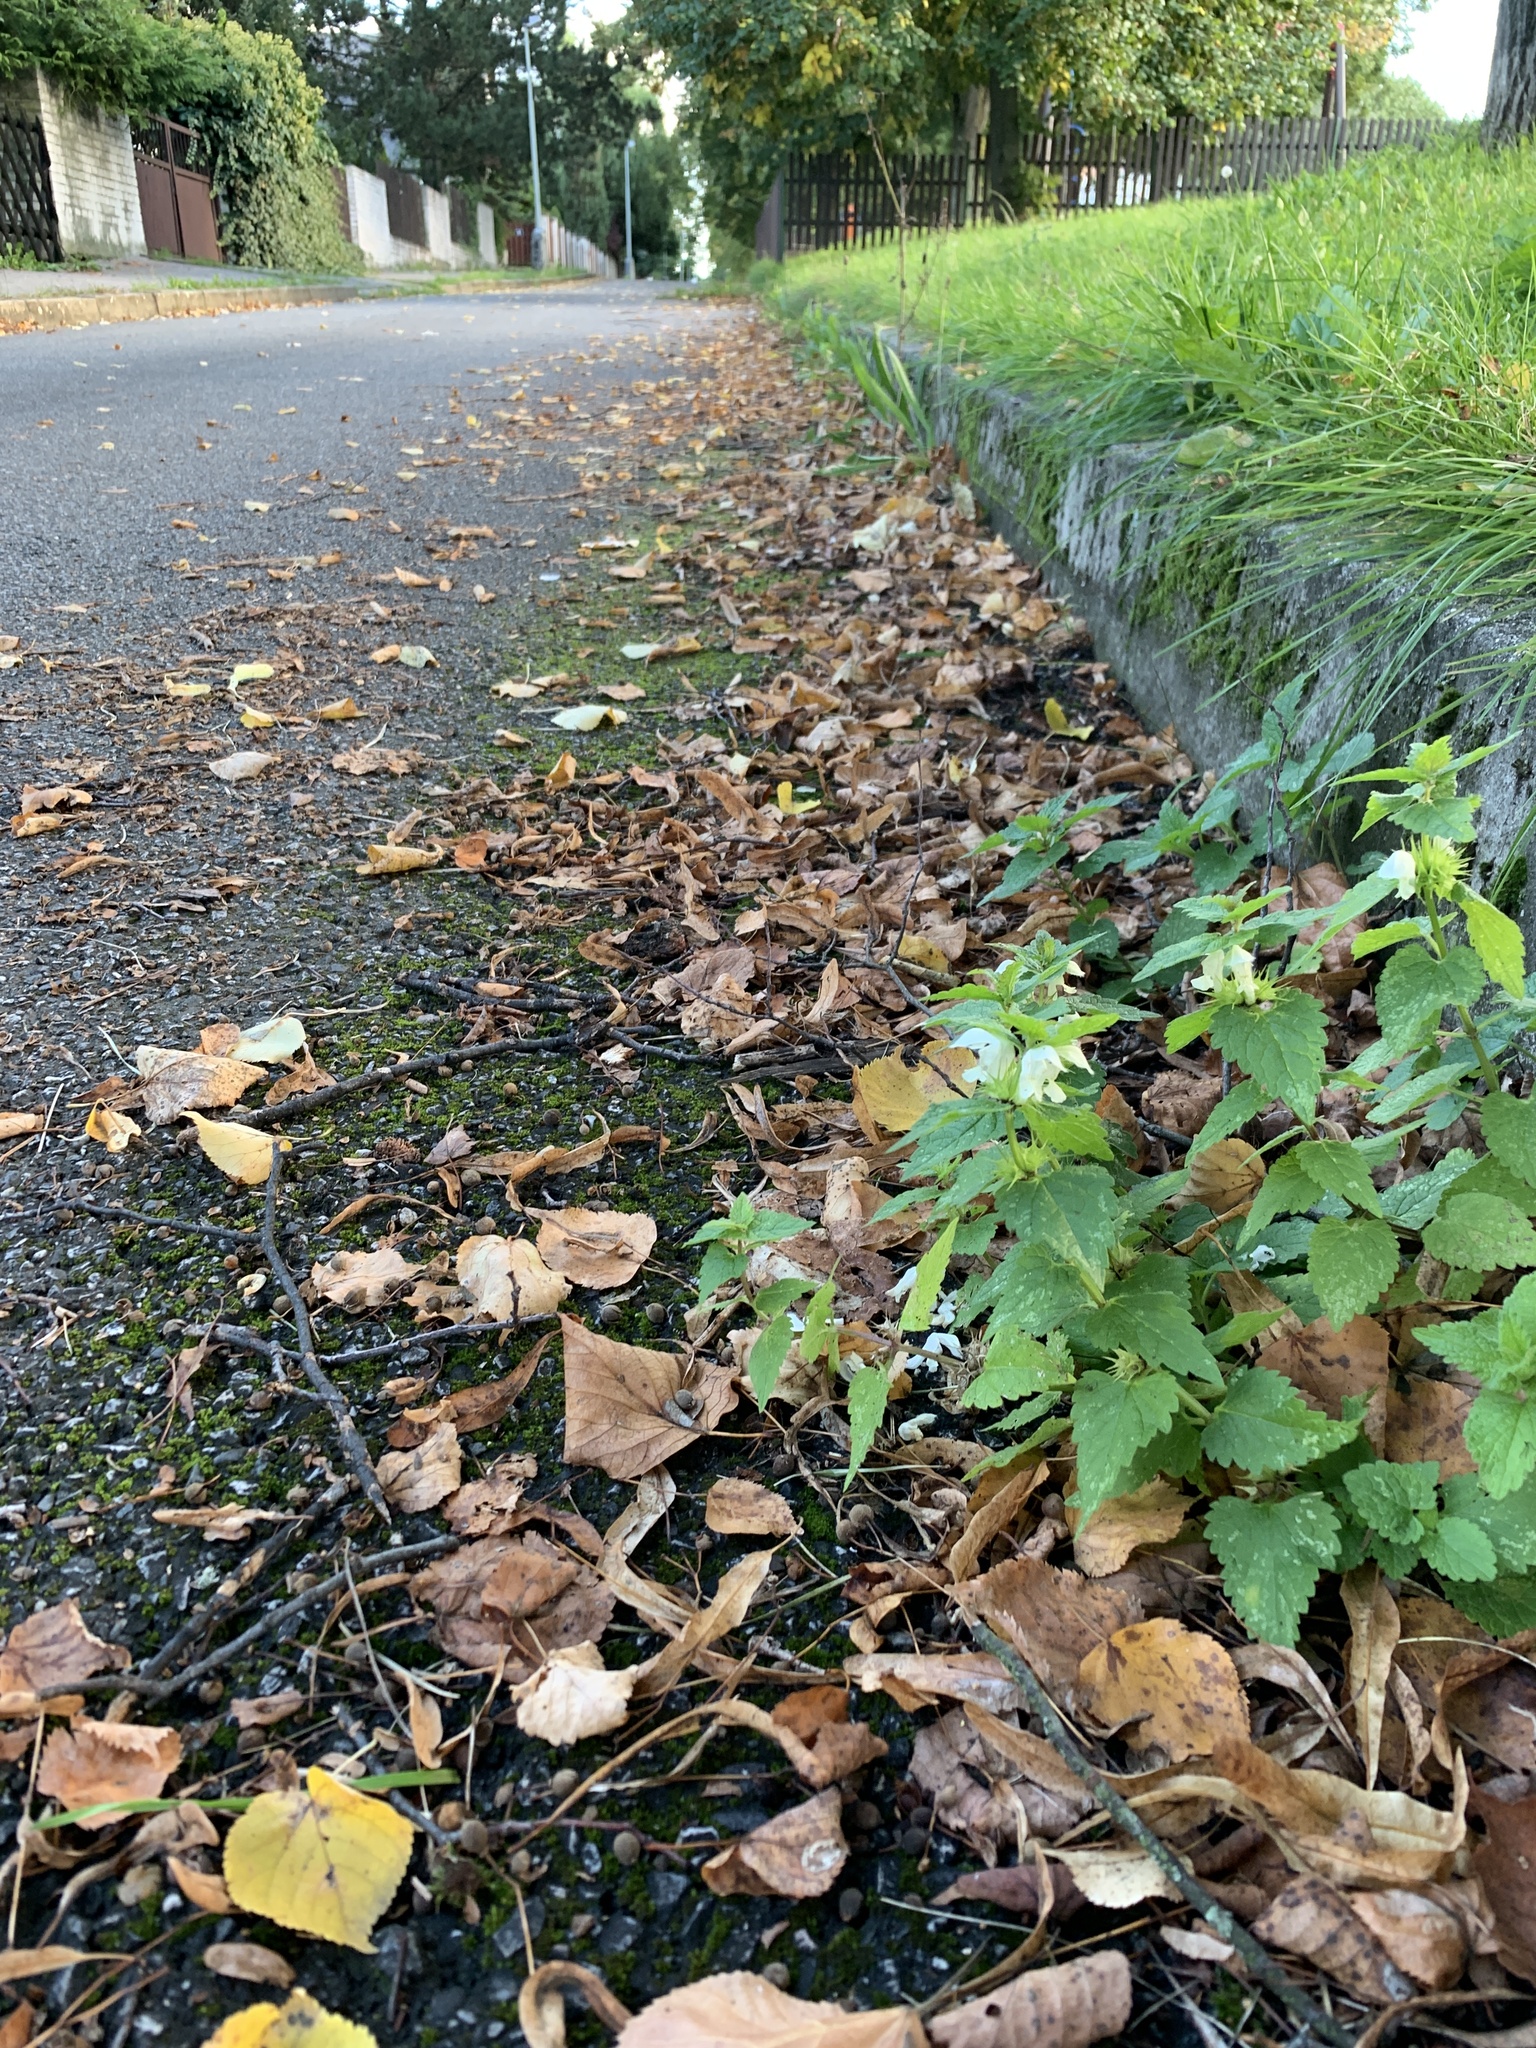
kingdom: Plantae
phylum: Tracheophyta
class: Magnoliopsida
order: Lamiales
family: Lamiaceae
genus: Lamium
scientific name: Lamium album
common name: White dead-nettle
